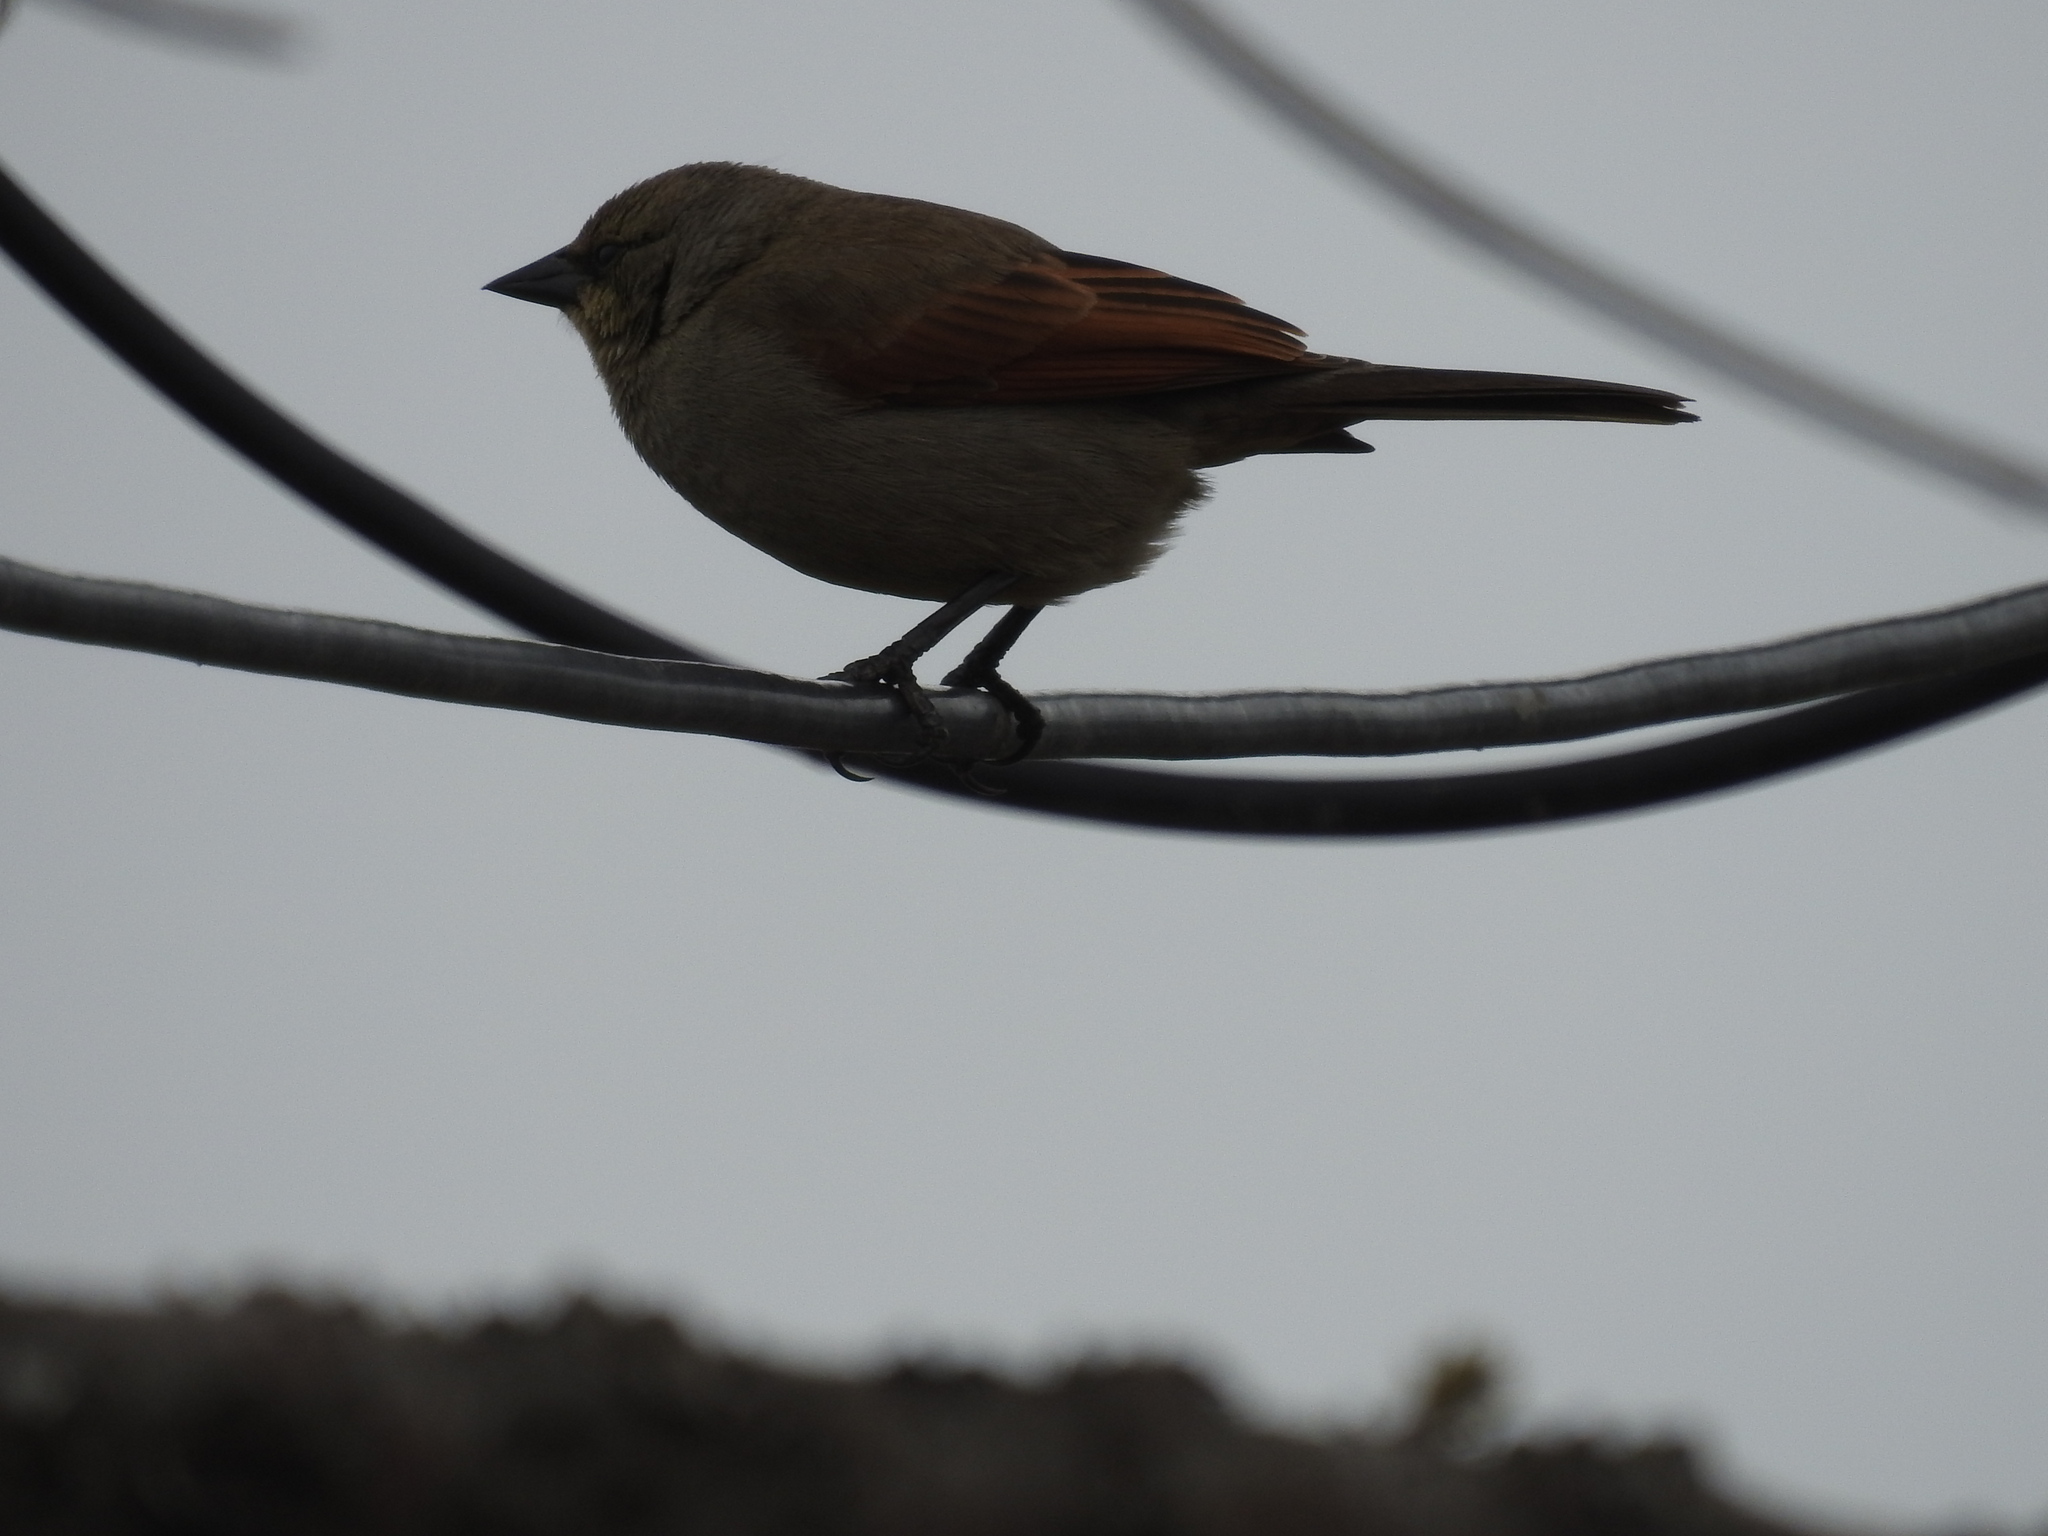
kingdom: Animalia
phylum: Chordata
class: Aves
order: Passeriformes
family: Icteridae
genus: Agelaioides
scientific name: Agelaioides badius
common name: Baywing
